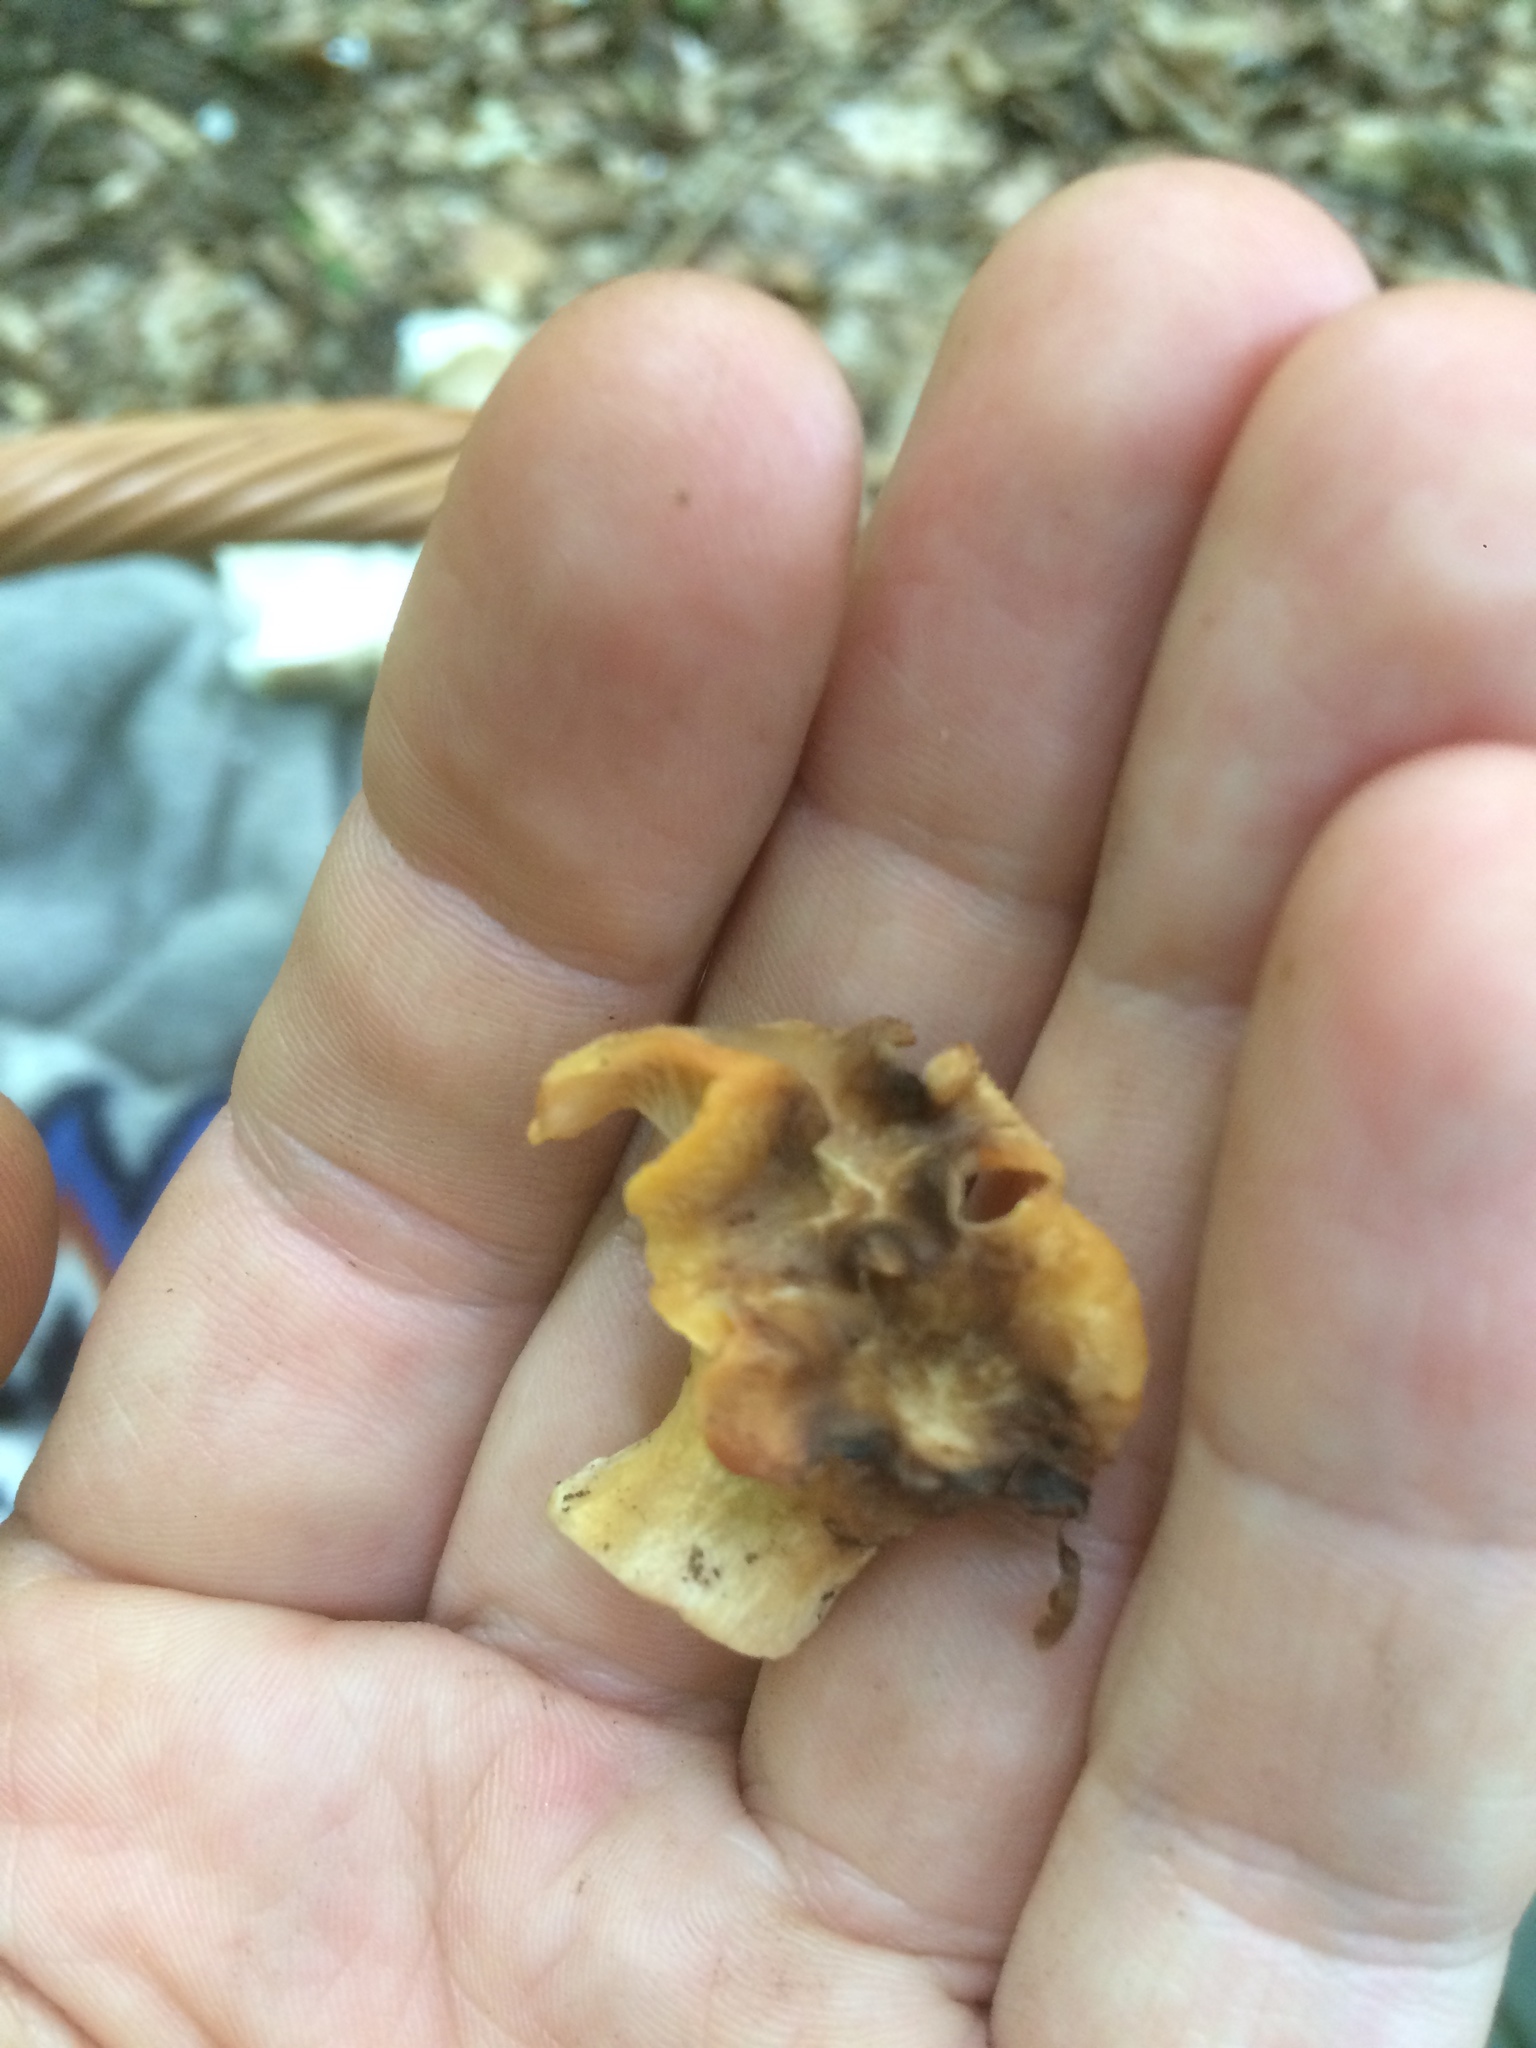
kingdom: Fungi
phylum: Basidiomycota
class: Agaricomycetes
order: Cantharellales
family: Hydnaceae
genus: Cantharellus
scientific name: Cantharellus ianthinoxanthus
